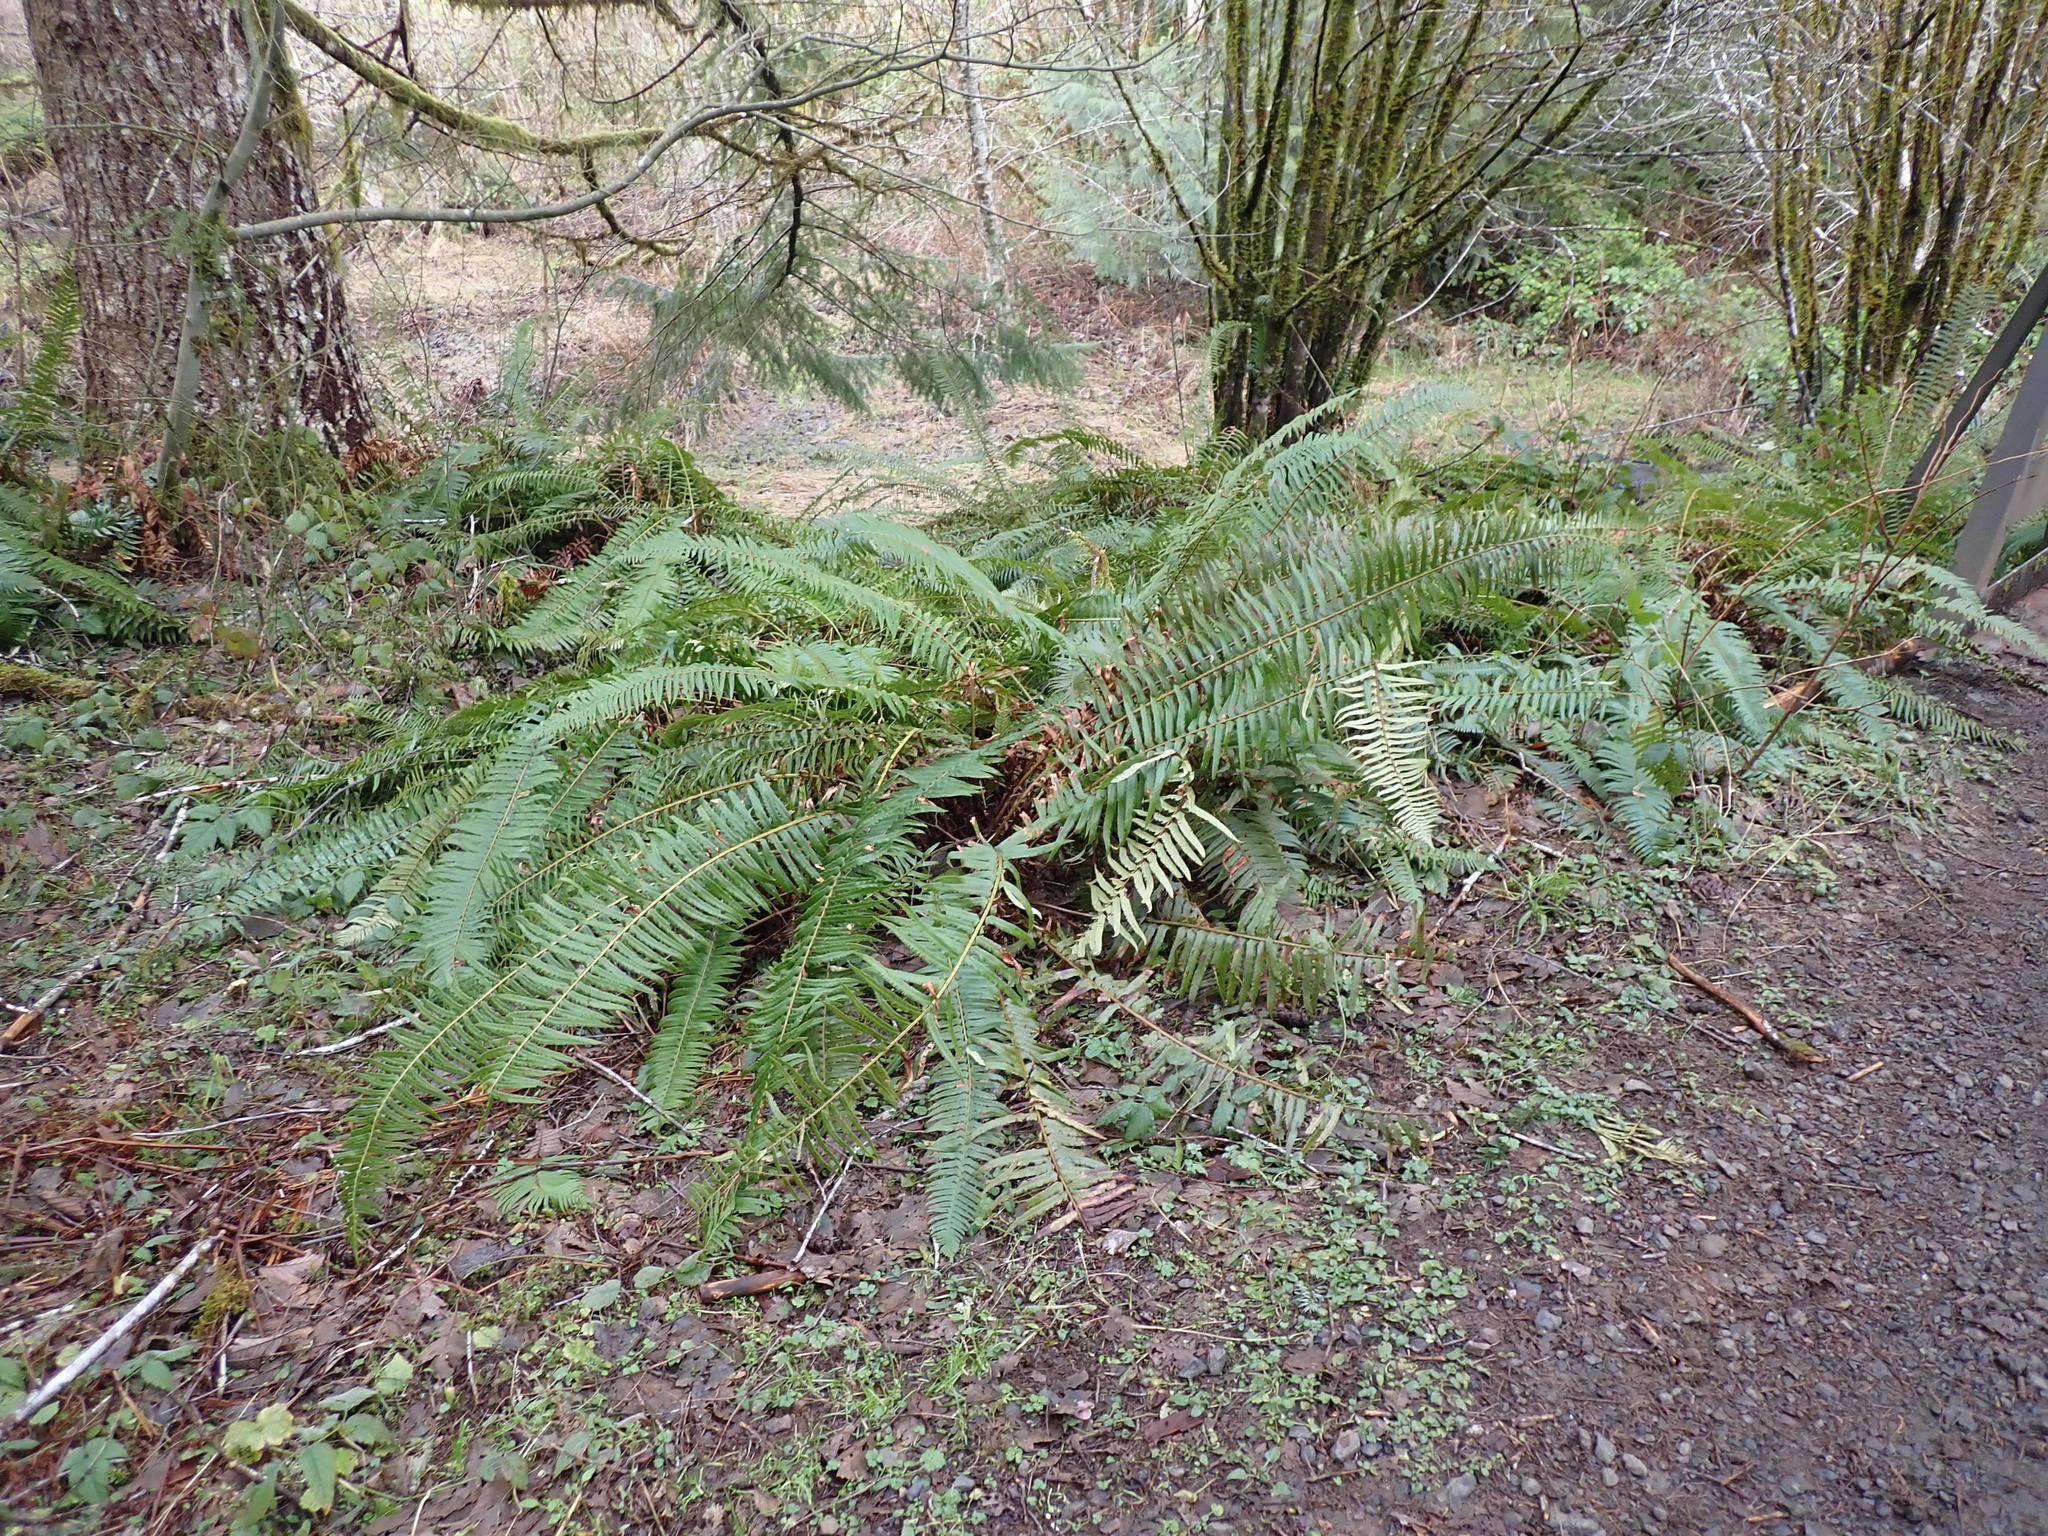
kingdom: Plantae
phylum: Tracheophyta
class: Polypodiopsida
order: Polypodiales
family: Dryopteridaceae
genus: Polystichum
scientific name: Polystichum munitum
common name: Western sword-fern
